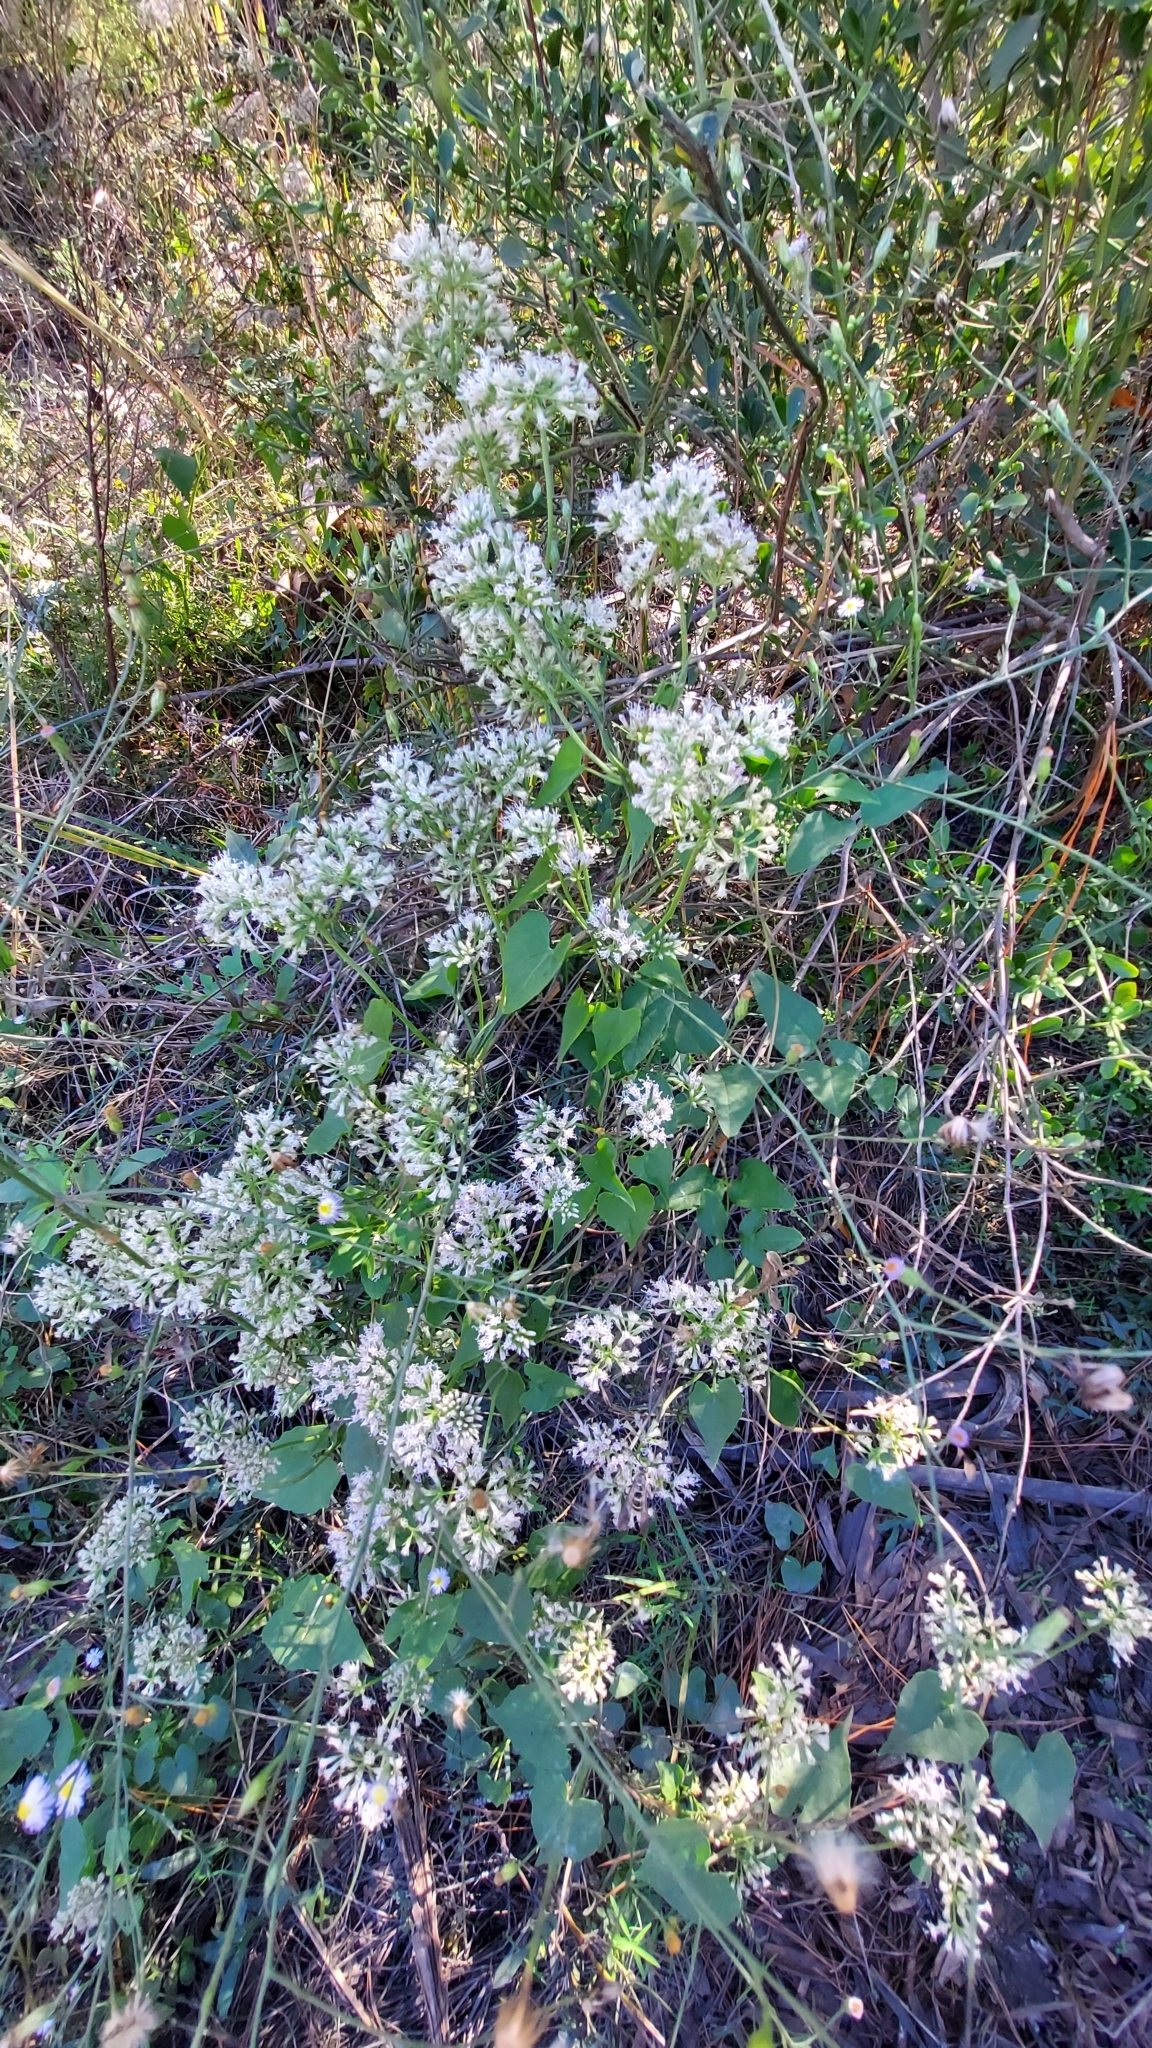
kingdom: Plantae
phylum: Tracheophyta
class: Magnoliopsida
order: Asterales
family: Asteraceae
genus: Mikania
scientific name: Mikania scandens
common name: Climbing hempvine
